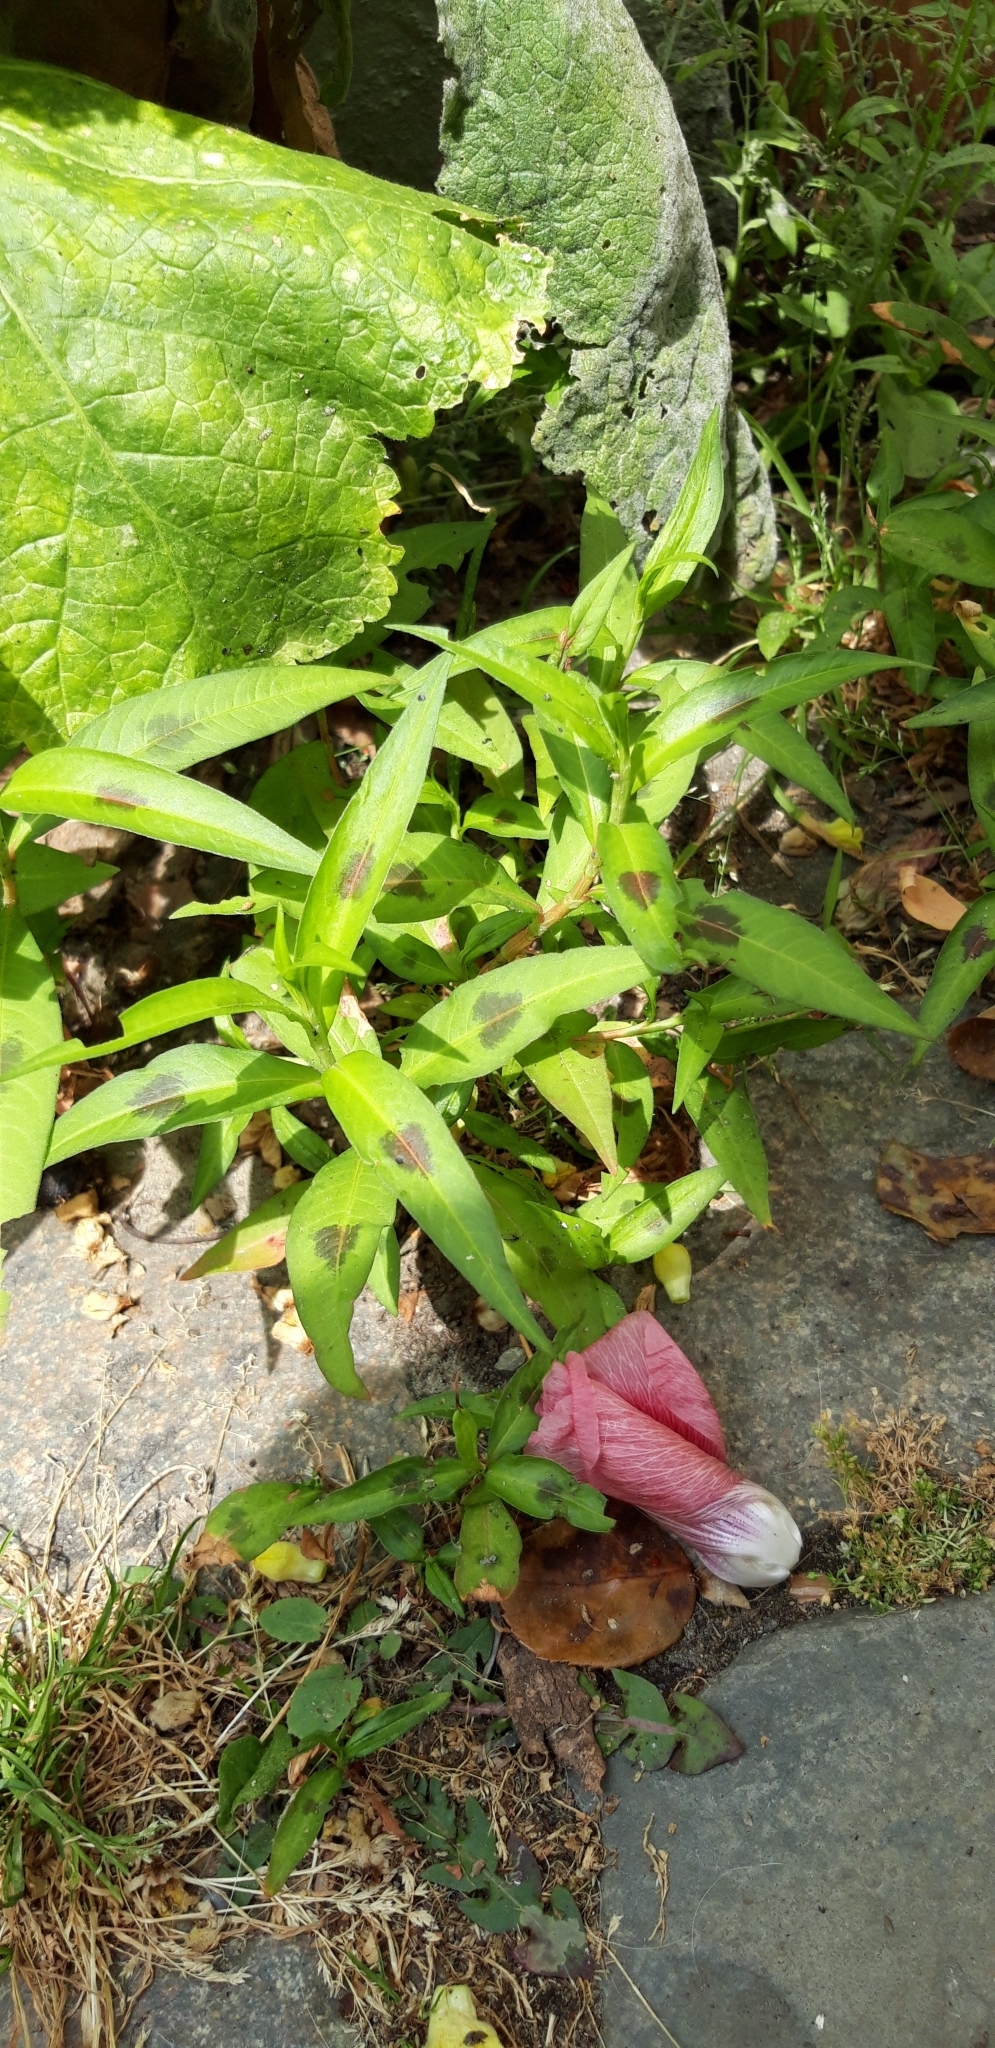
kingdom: Plantae
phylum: Tracheophyta
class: Magnoliopsida
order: Caryophyllales
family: Polygonaceae
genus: Persicaria
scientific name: Persicaria maculosa
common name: Redshank
